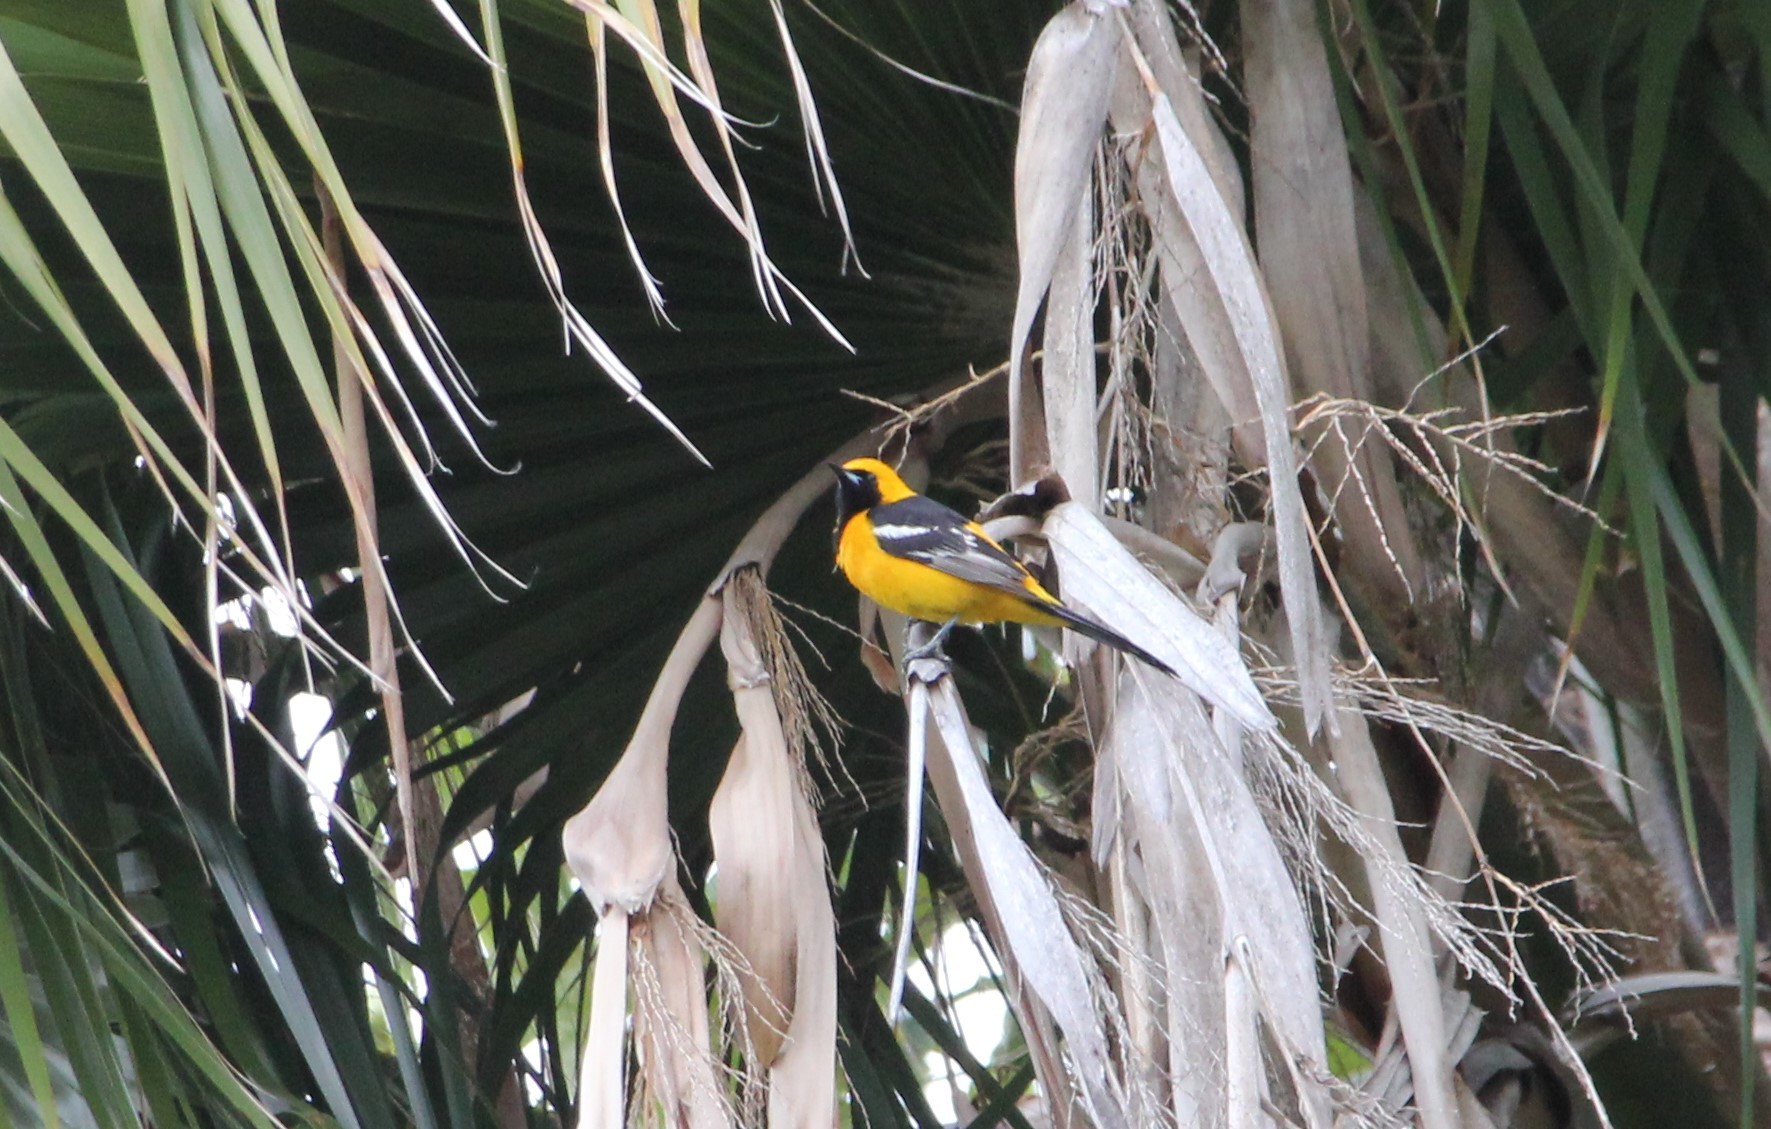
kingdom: Animalia
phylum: Chordata
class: Aves
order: Passeriformes
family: Icteridae
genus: Icterus
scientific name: Icterus cucullatus
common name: Hooded oriole
